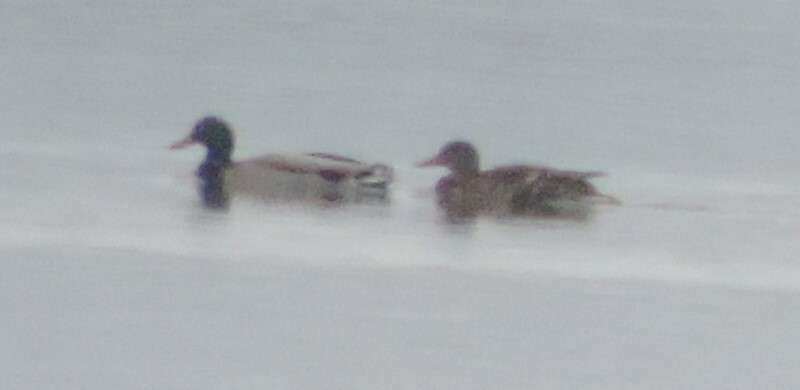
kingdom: Animalia
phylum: Chordata
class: Aves
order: Anseriformes
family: Anatidae
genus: Anas
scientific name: Anas platyrhynchos
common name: Mallard
